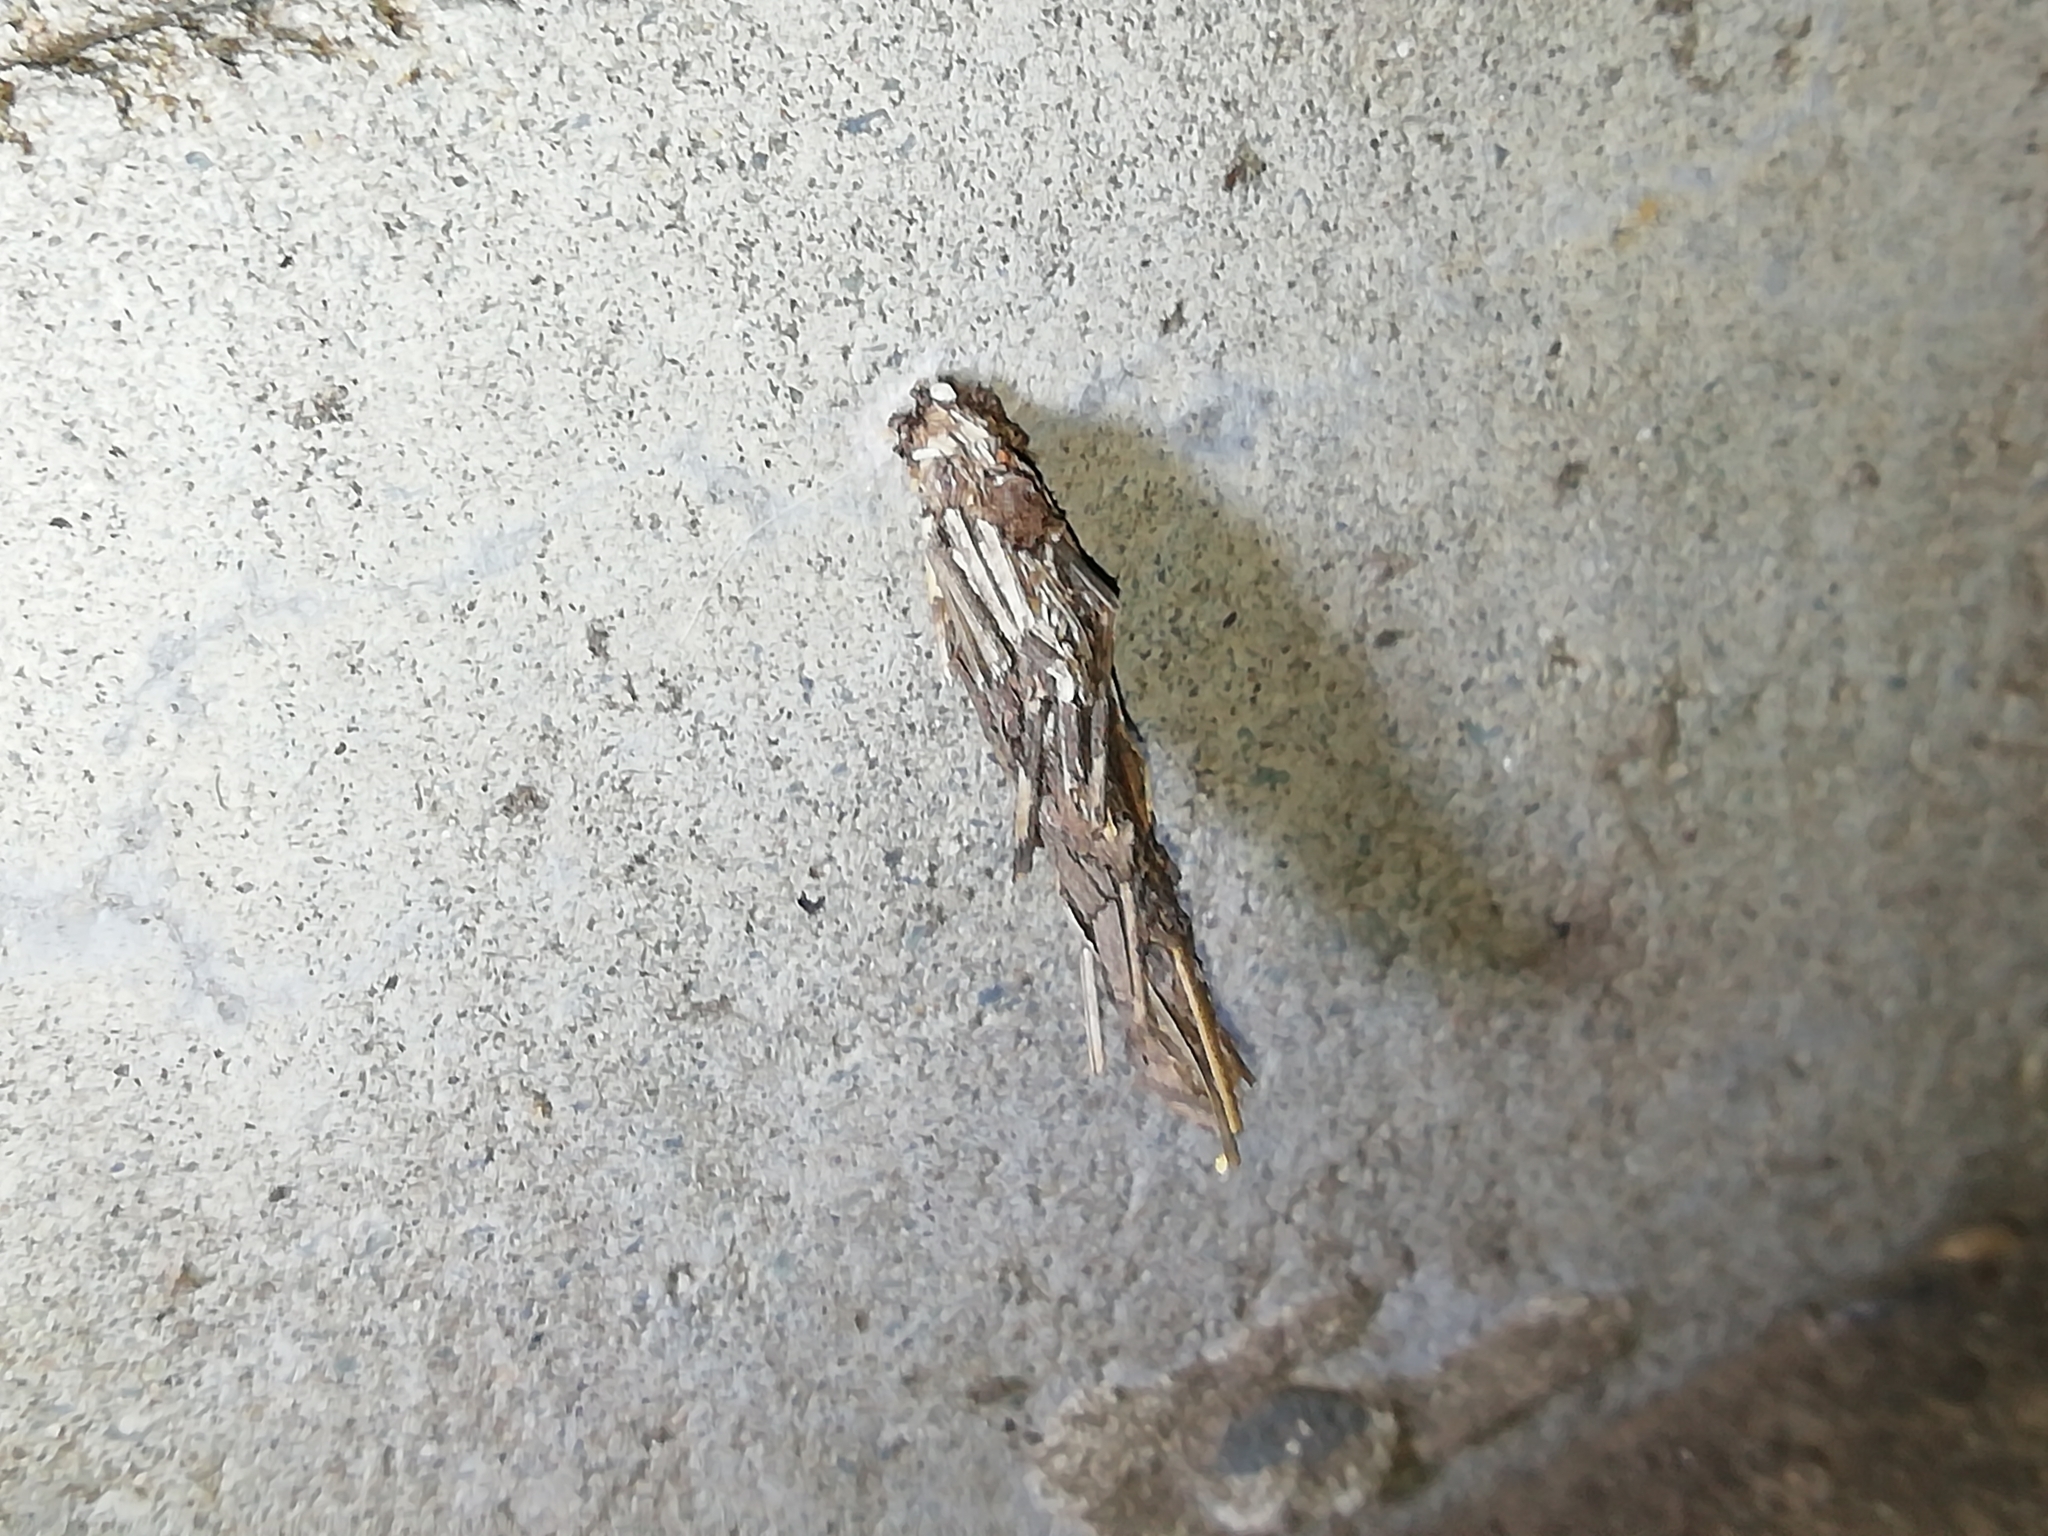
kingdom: Animalia
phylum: Arthropoda
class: Insecta
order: Lepidoptera
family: Psychidae
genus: Canephora
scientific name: Canephora hirsuta
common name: Hairy sweep
